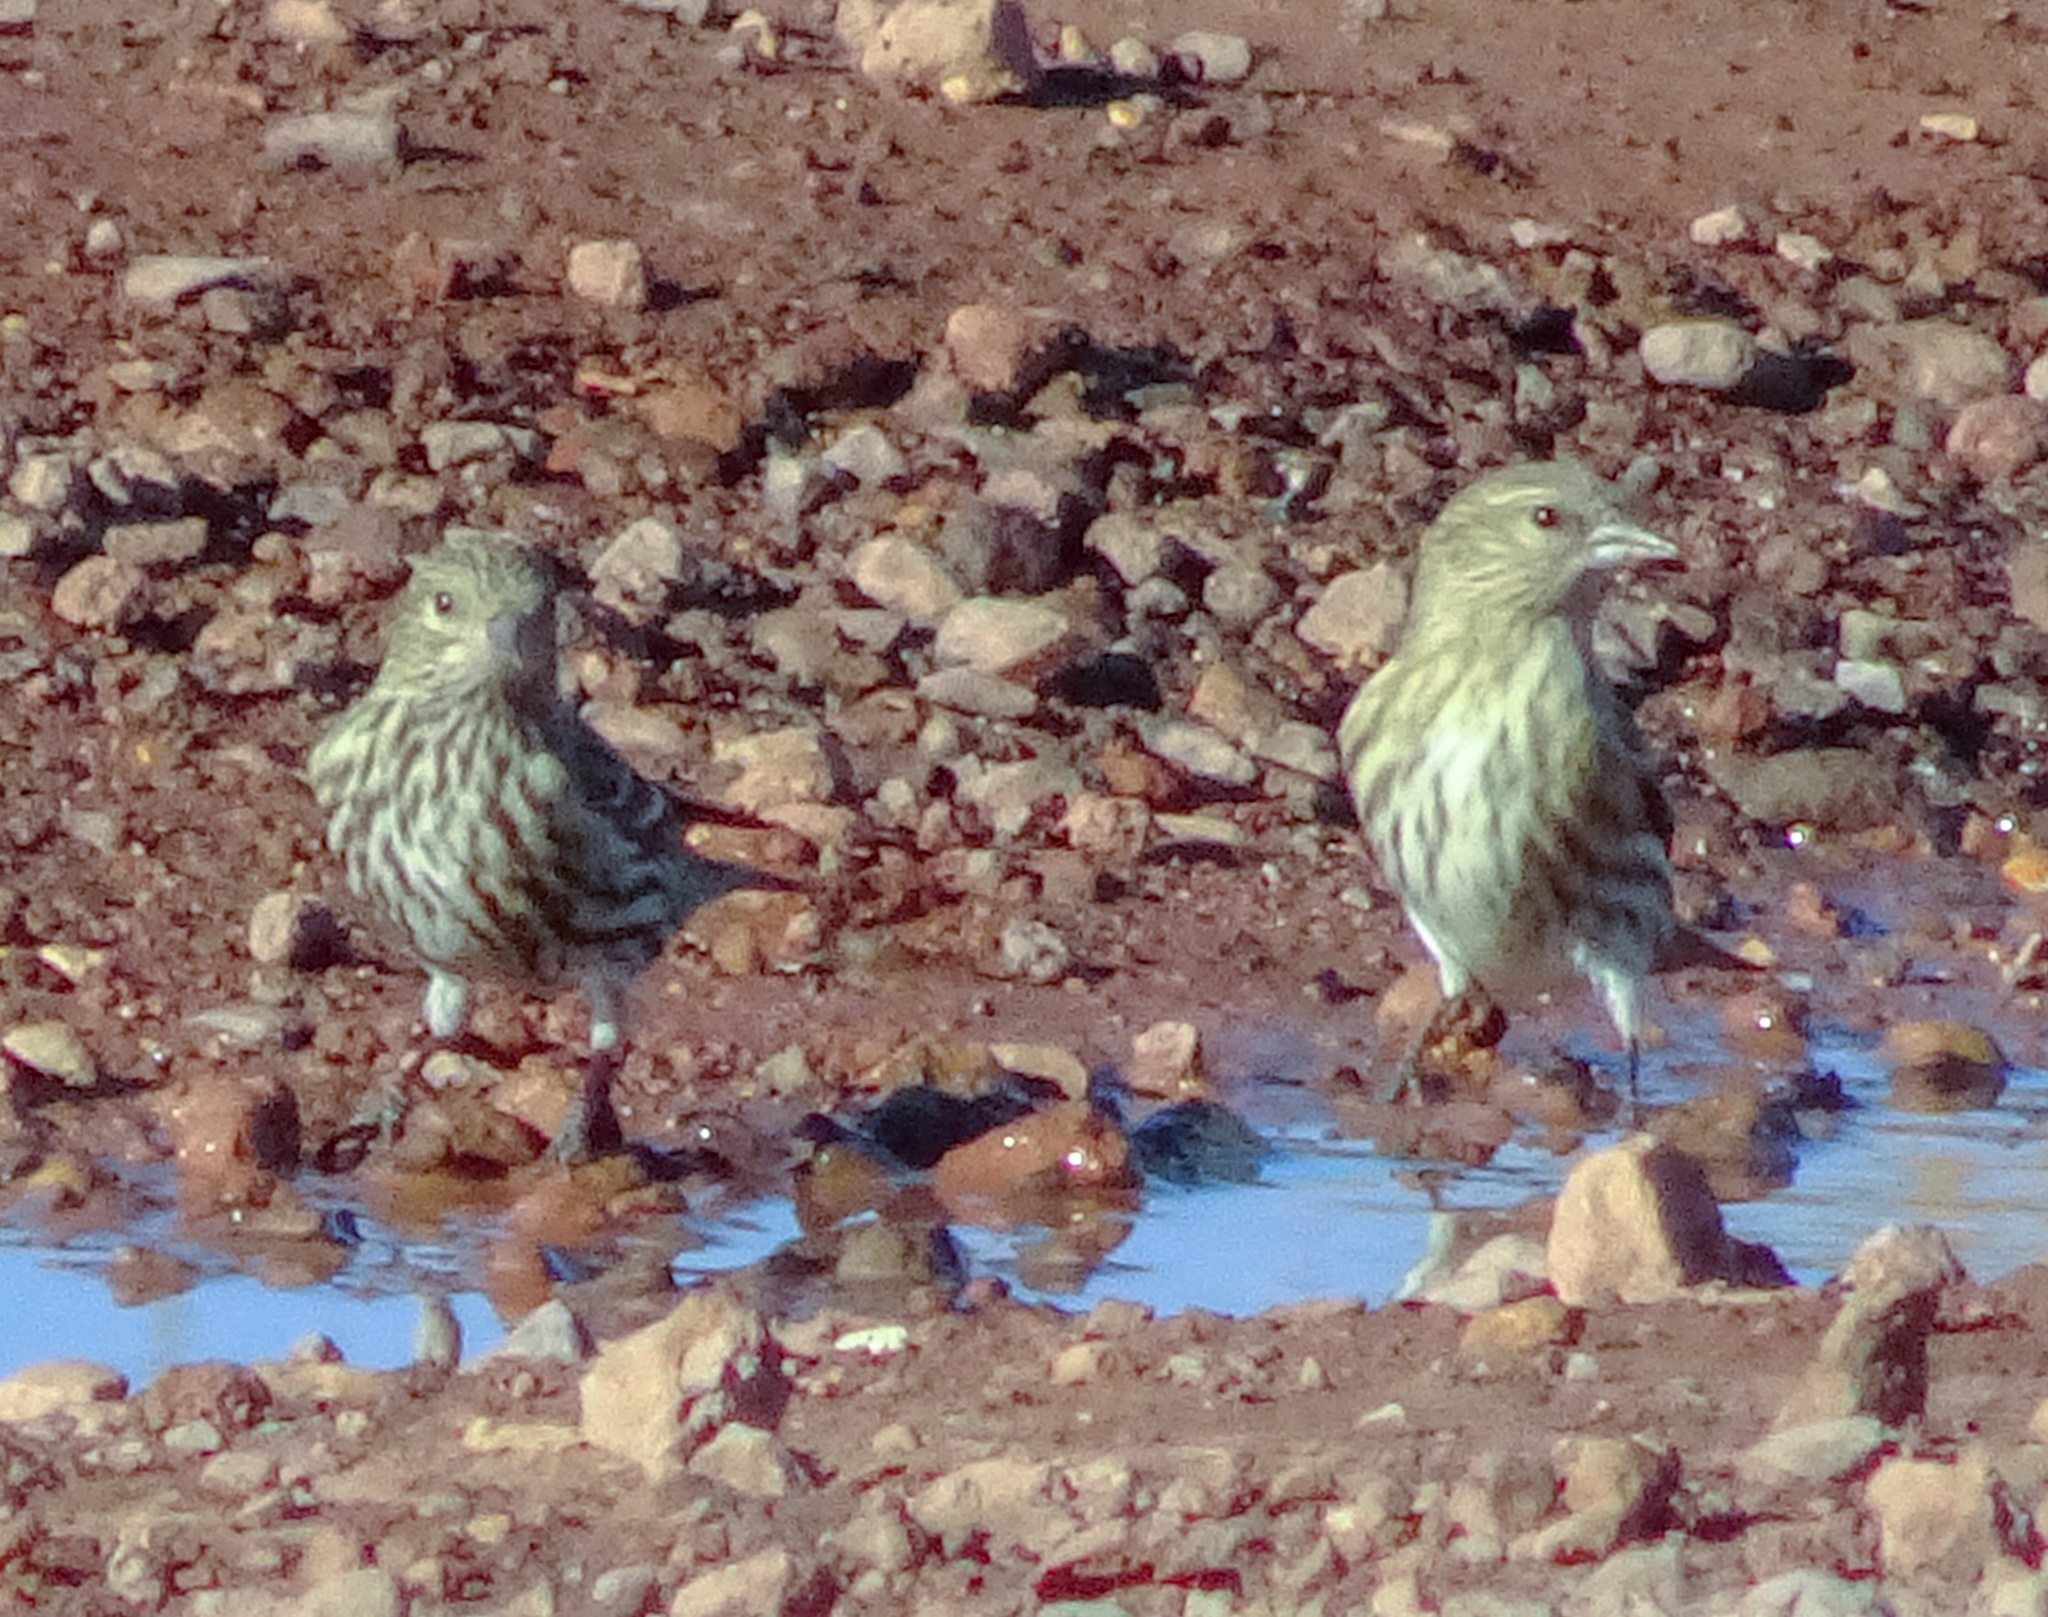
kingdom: Animalia
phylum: Chordata
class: Aves
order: Passeriformes
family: Fringillidae
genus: Spinus
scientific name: Spinus pinus
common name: Pine siskin
